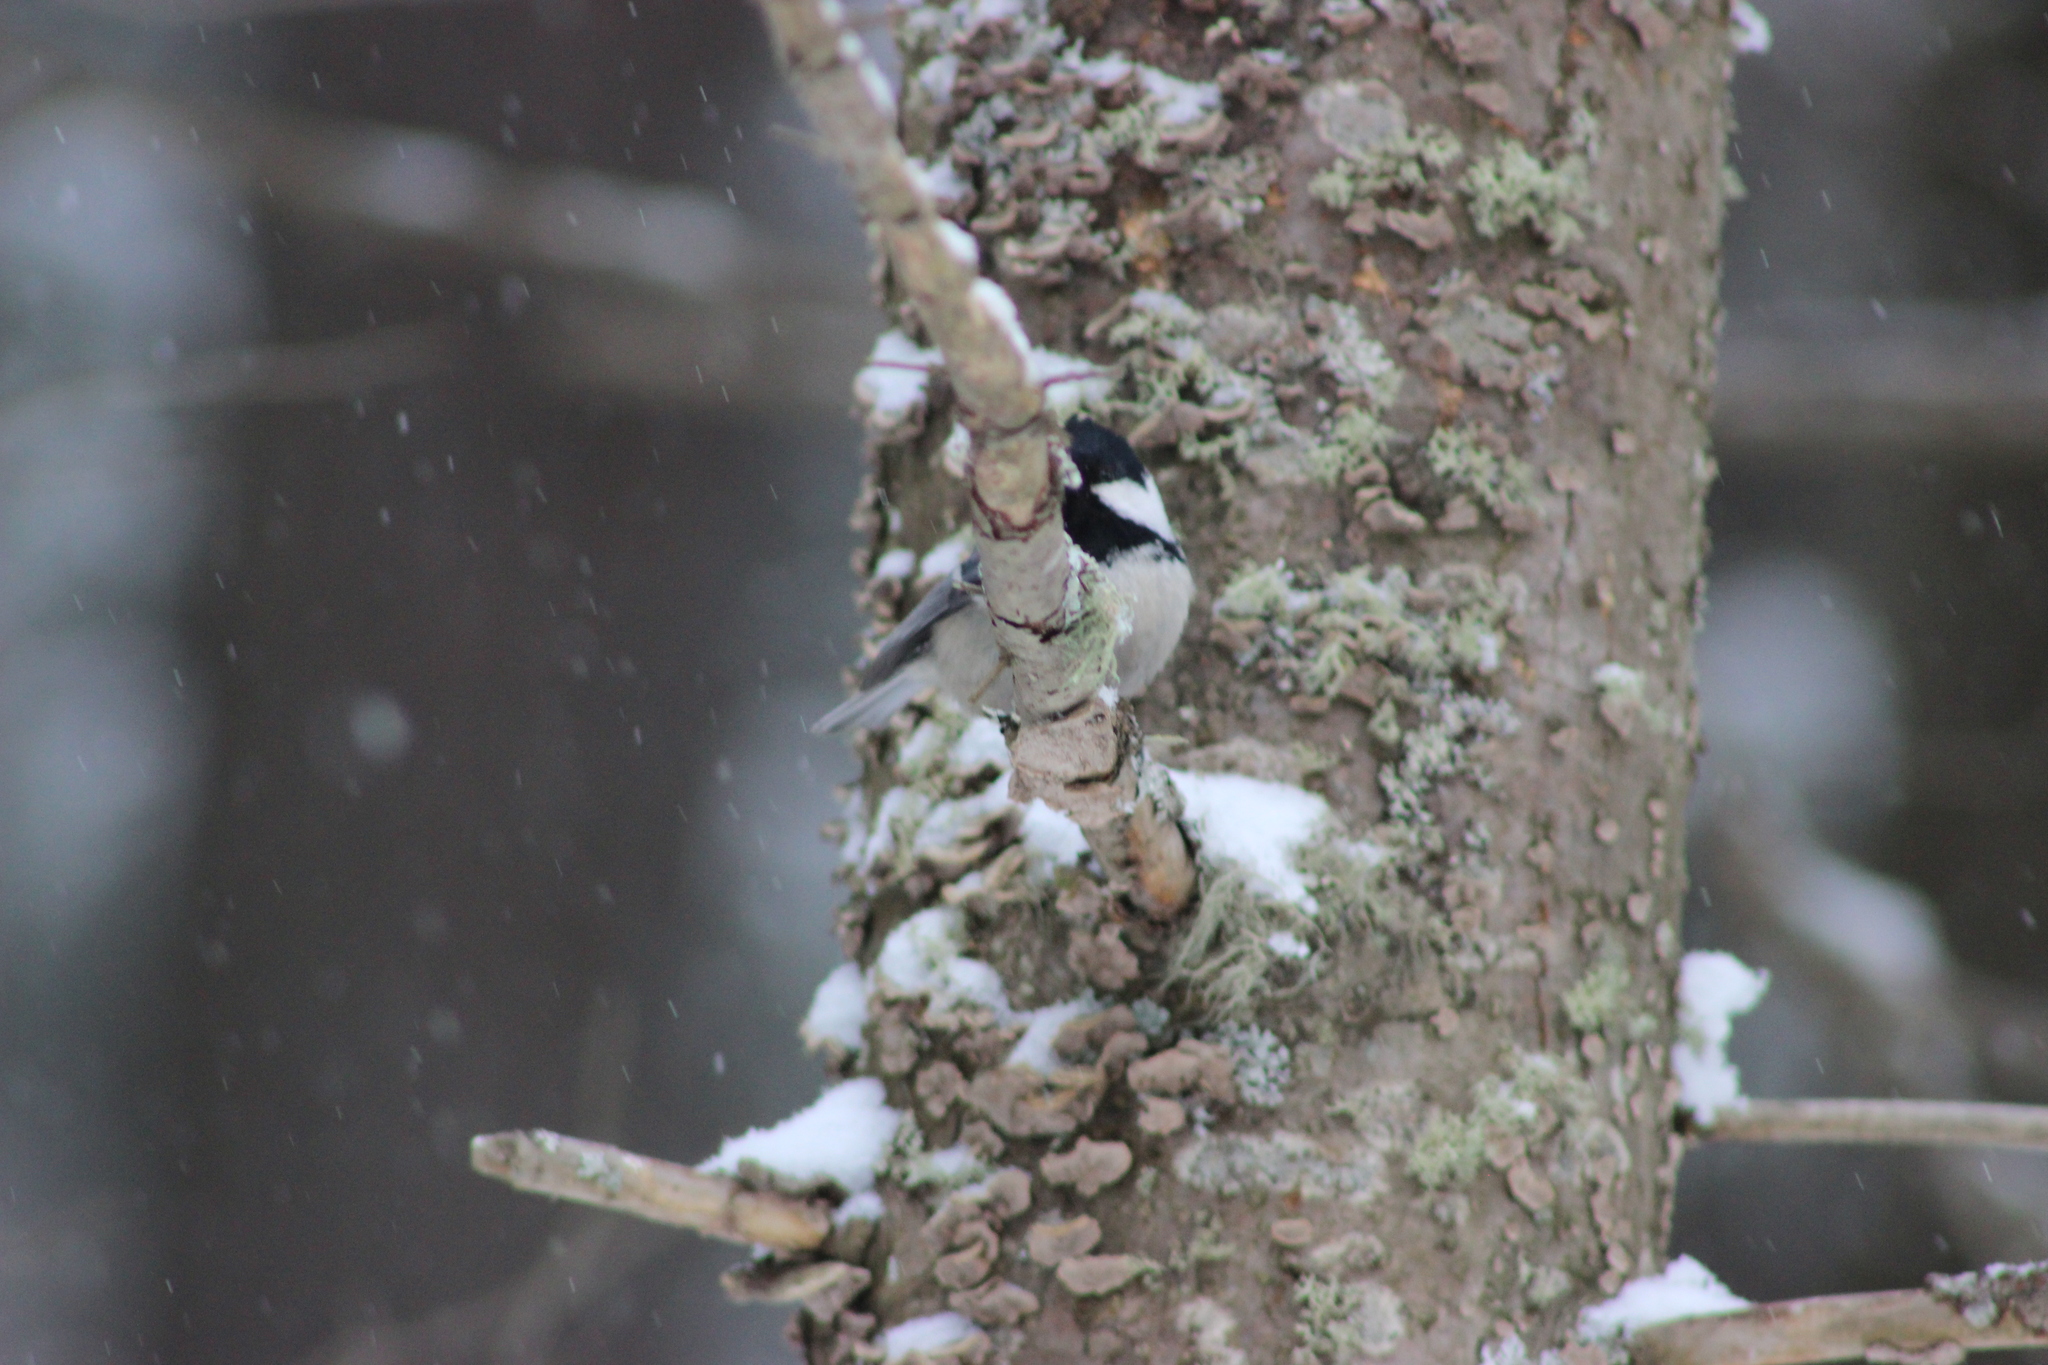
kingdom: Animalia
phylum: Chordata
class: Aves
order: Passeriformes
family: Paridae
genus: Periparus
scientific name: Periparus ater
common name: Coal tit
